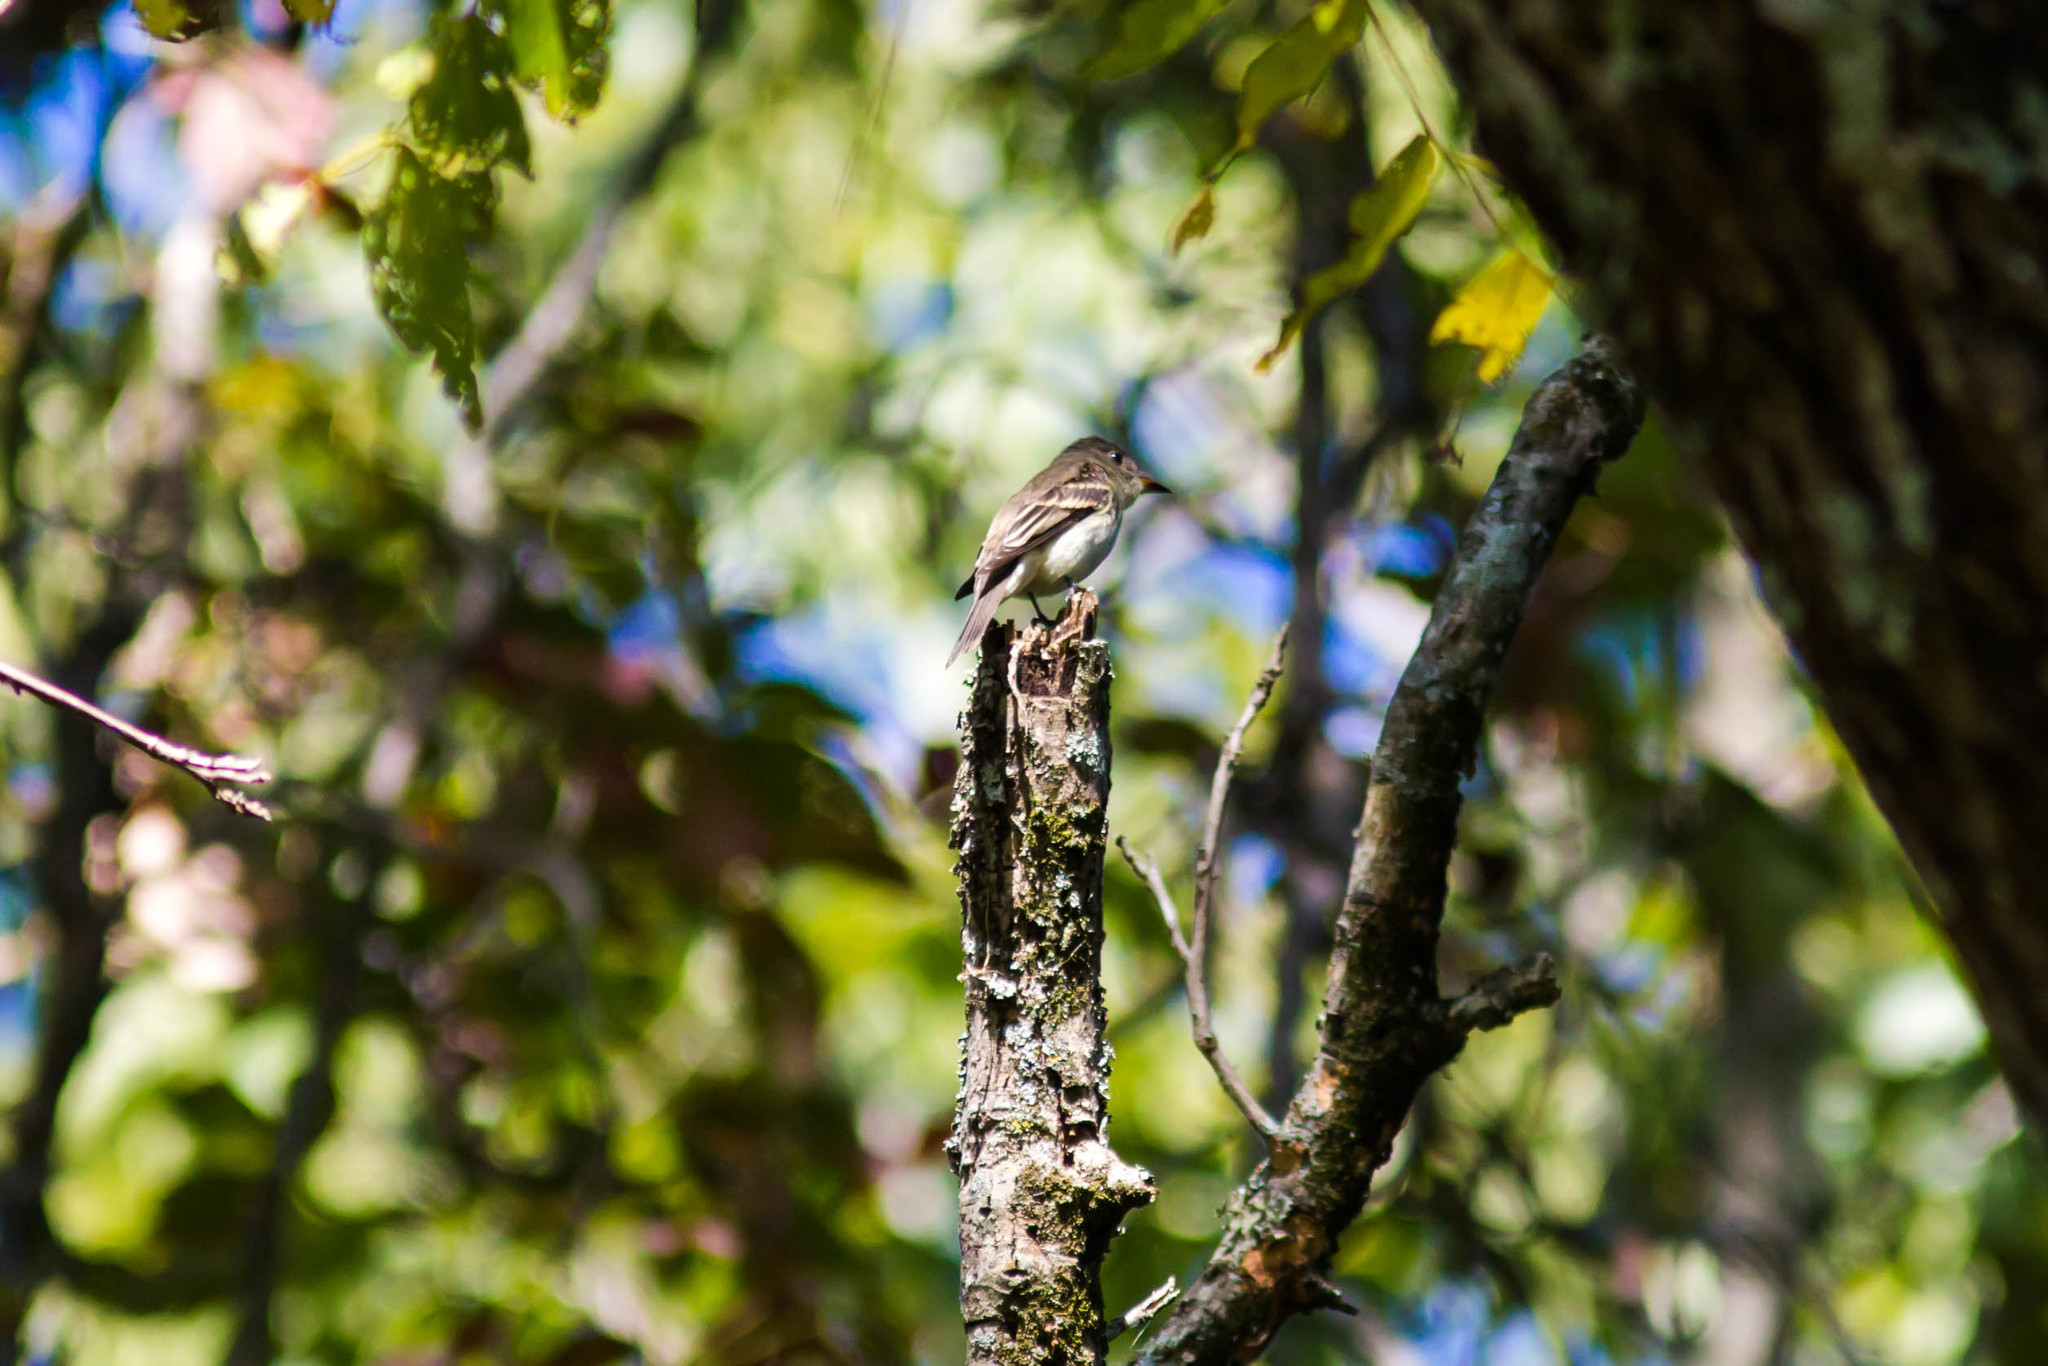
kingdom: Animalia
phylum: Chordata
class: Aves
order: Passeriformes
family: Tyrannidae
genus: Contopus
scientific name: Contopus virens
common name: Eastern wood-pewee
